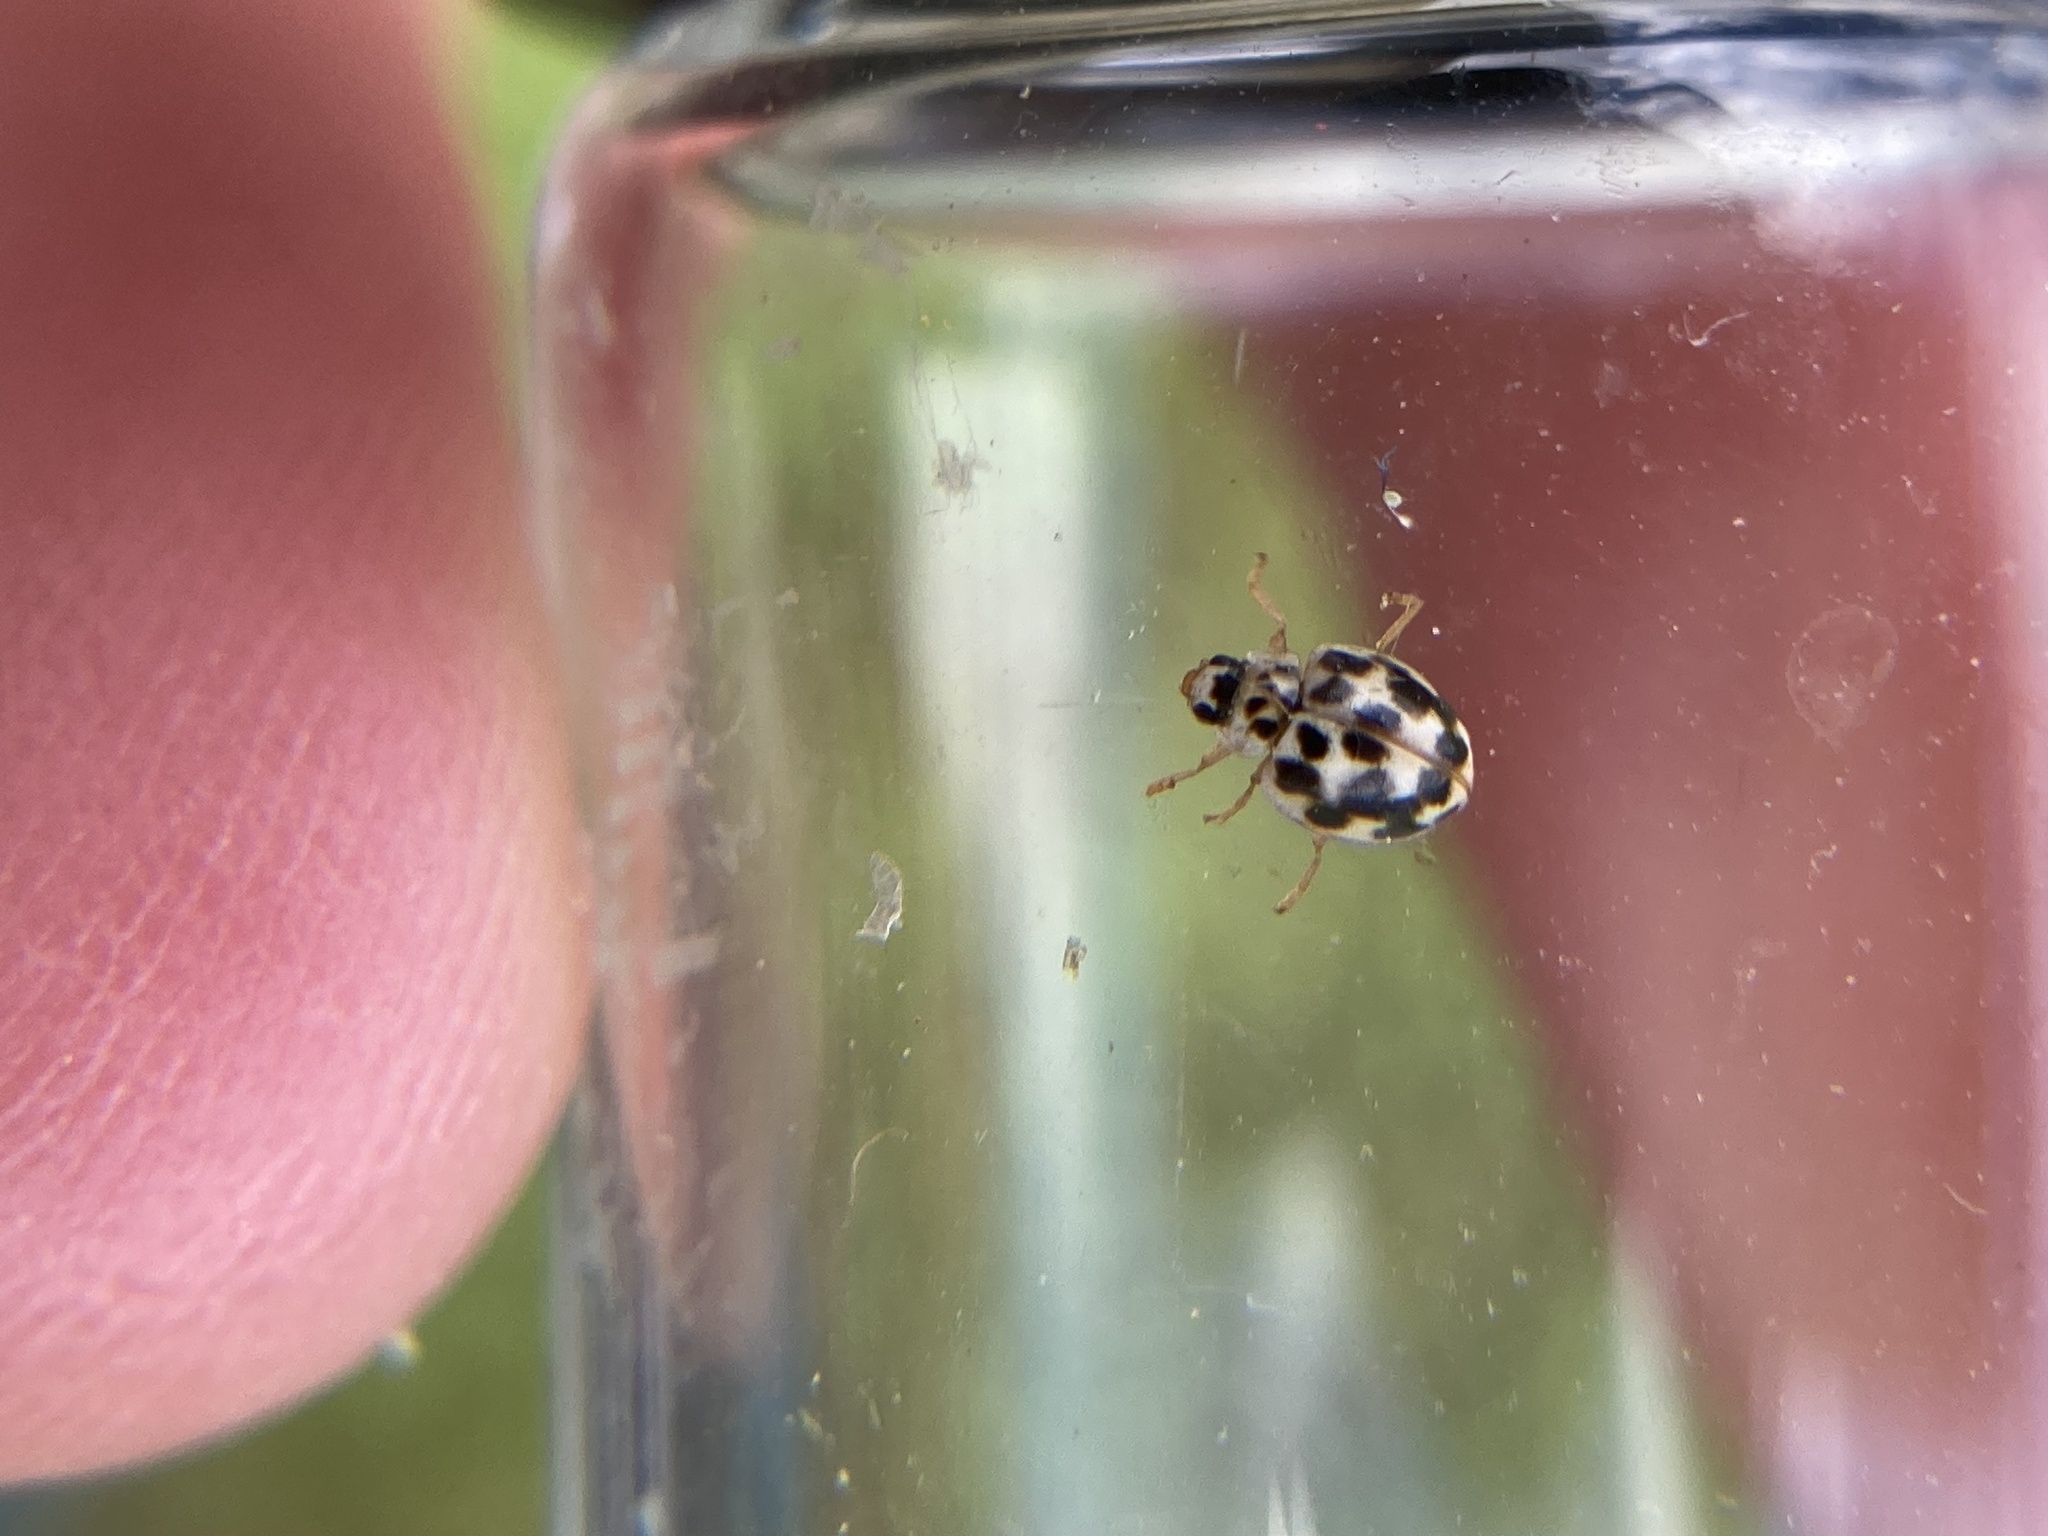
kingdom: Animalia
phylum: Arthropoda
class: Insecta
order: Coleoptera
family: Coccinellidae
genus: Psyllobora
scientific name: Psyllobora vigintimaculata
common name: Ladybird beetle
